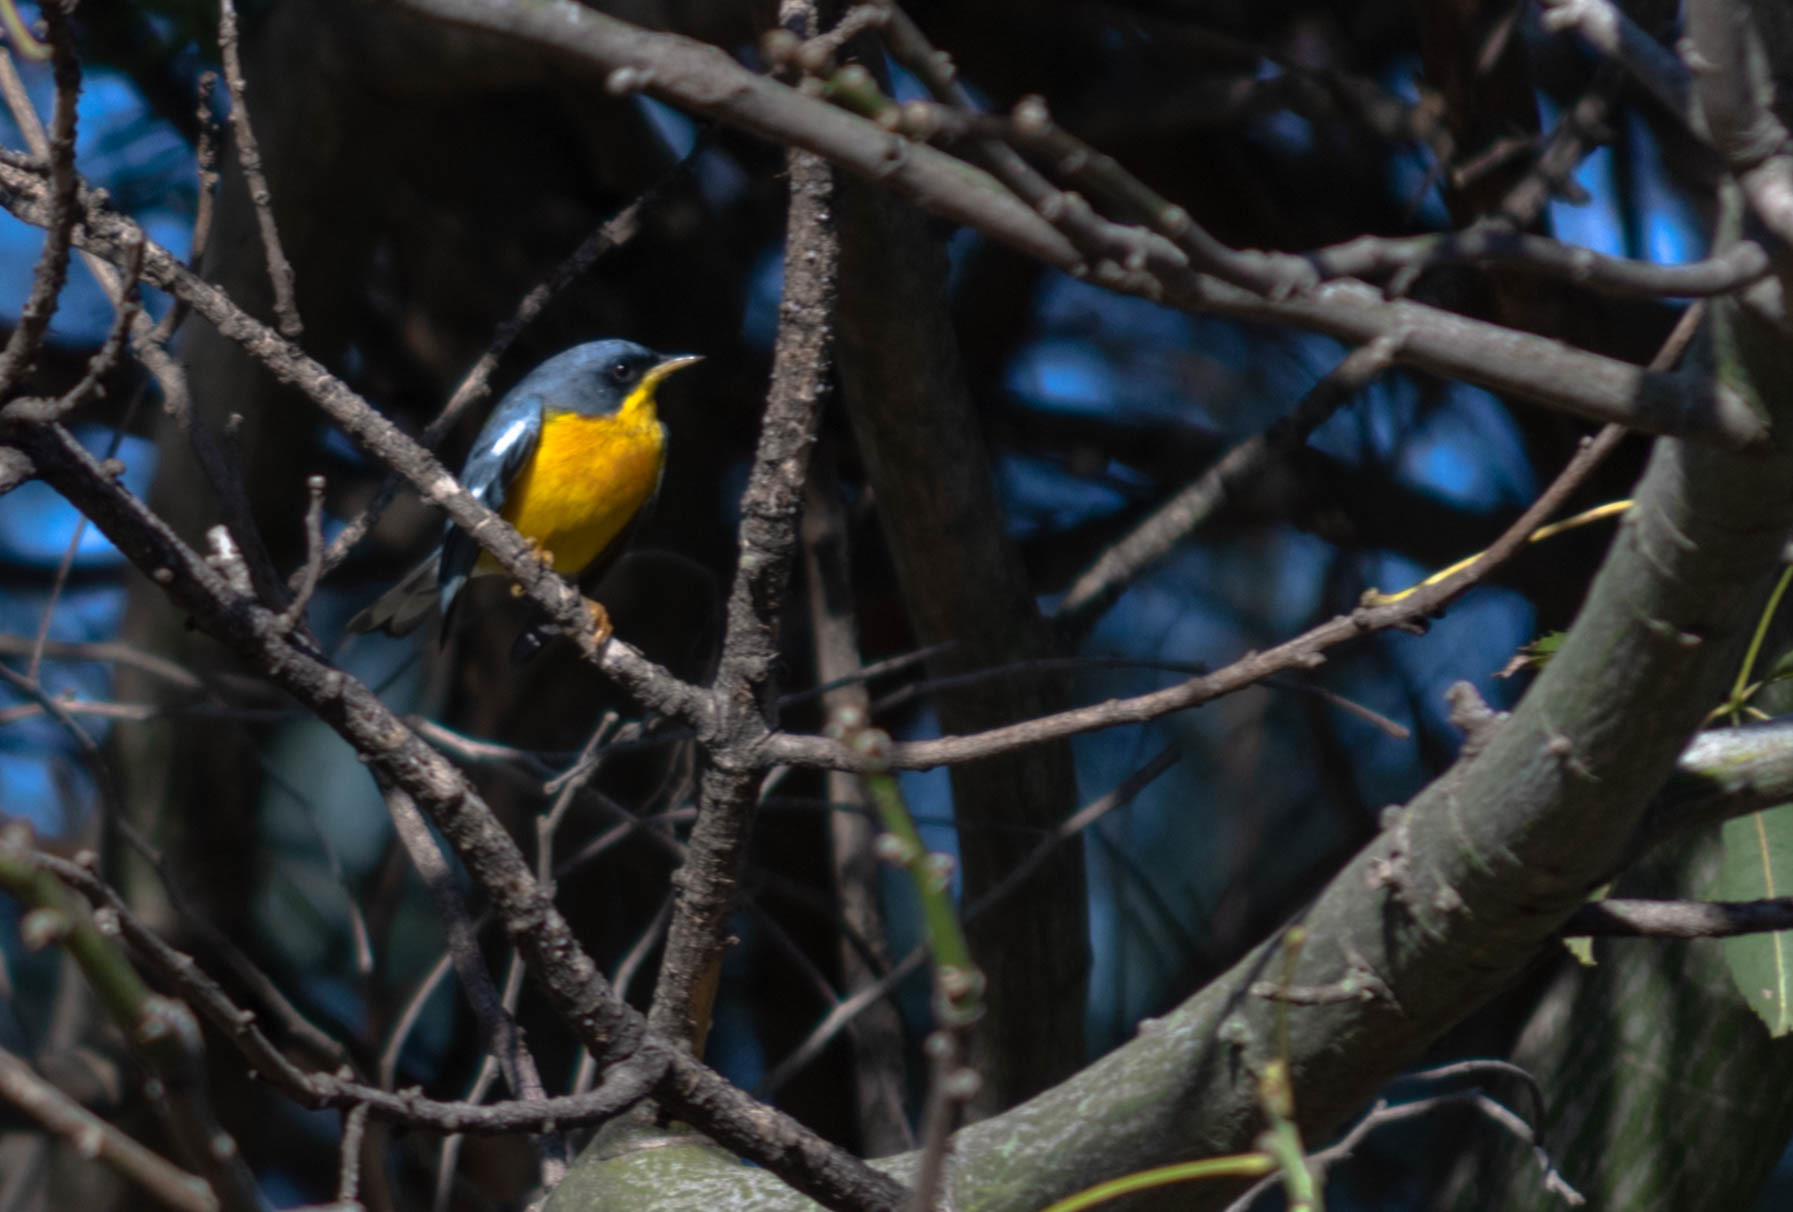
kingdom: Animalia
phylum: Chordata
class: Aves
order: Passeriformes
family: Parulidae
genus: Setophaga
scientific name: Setophaga pitiayumi
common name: Tropical parula
